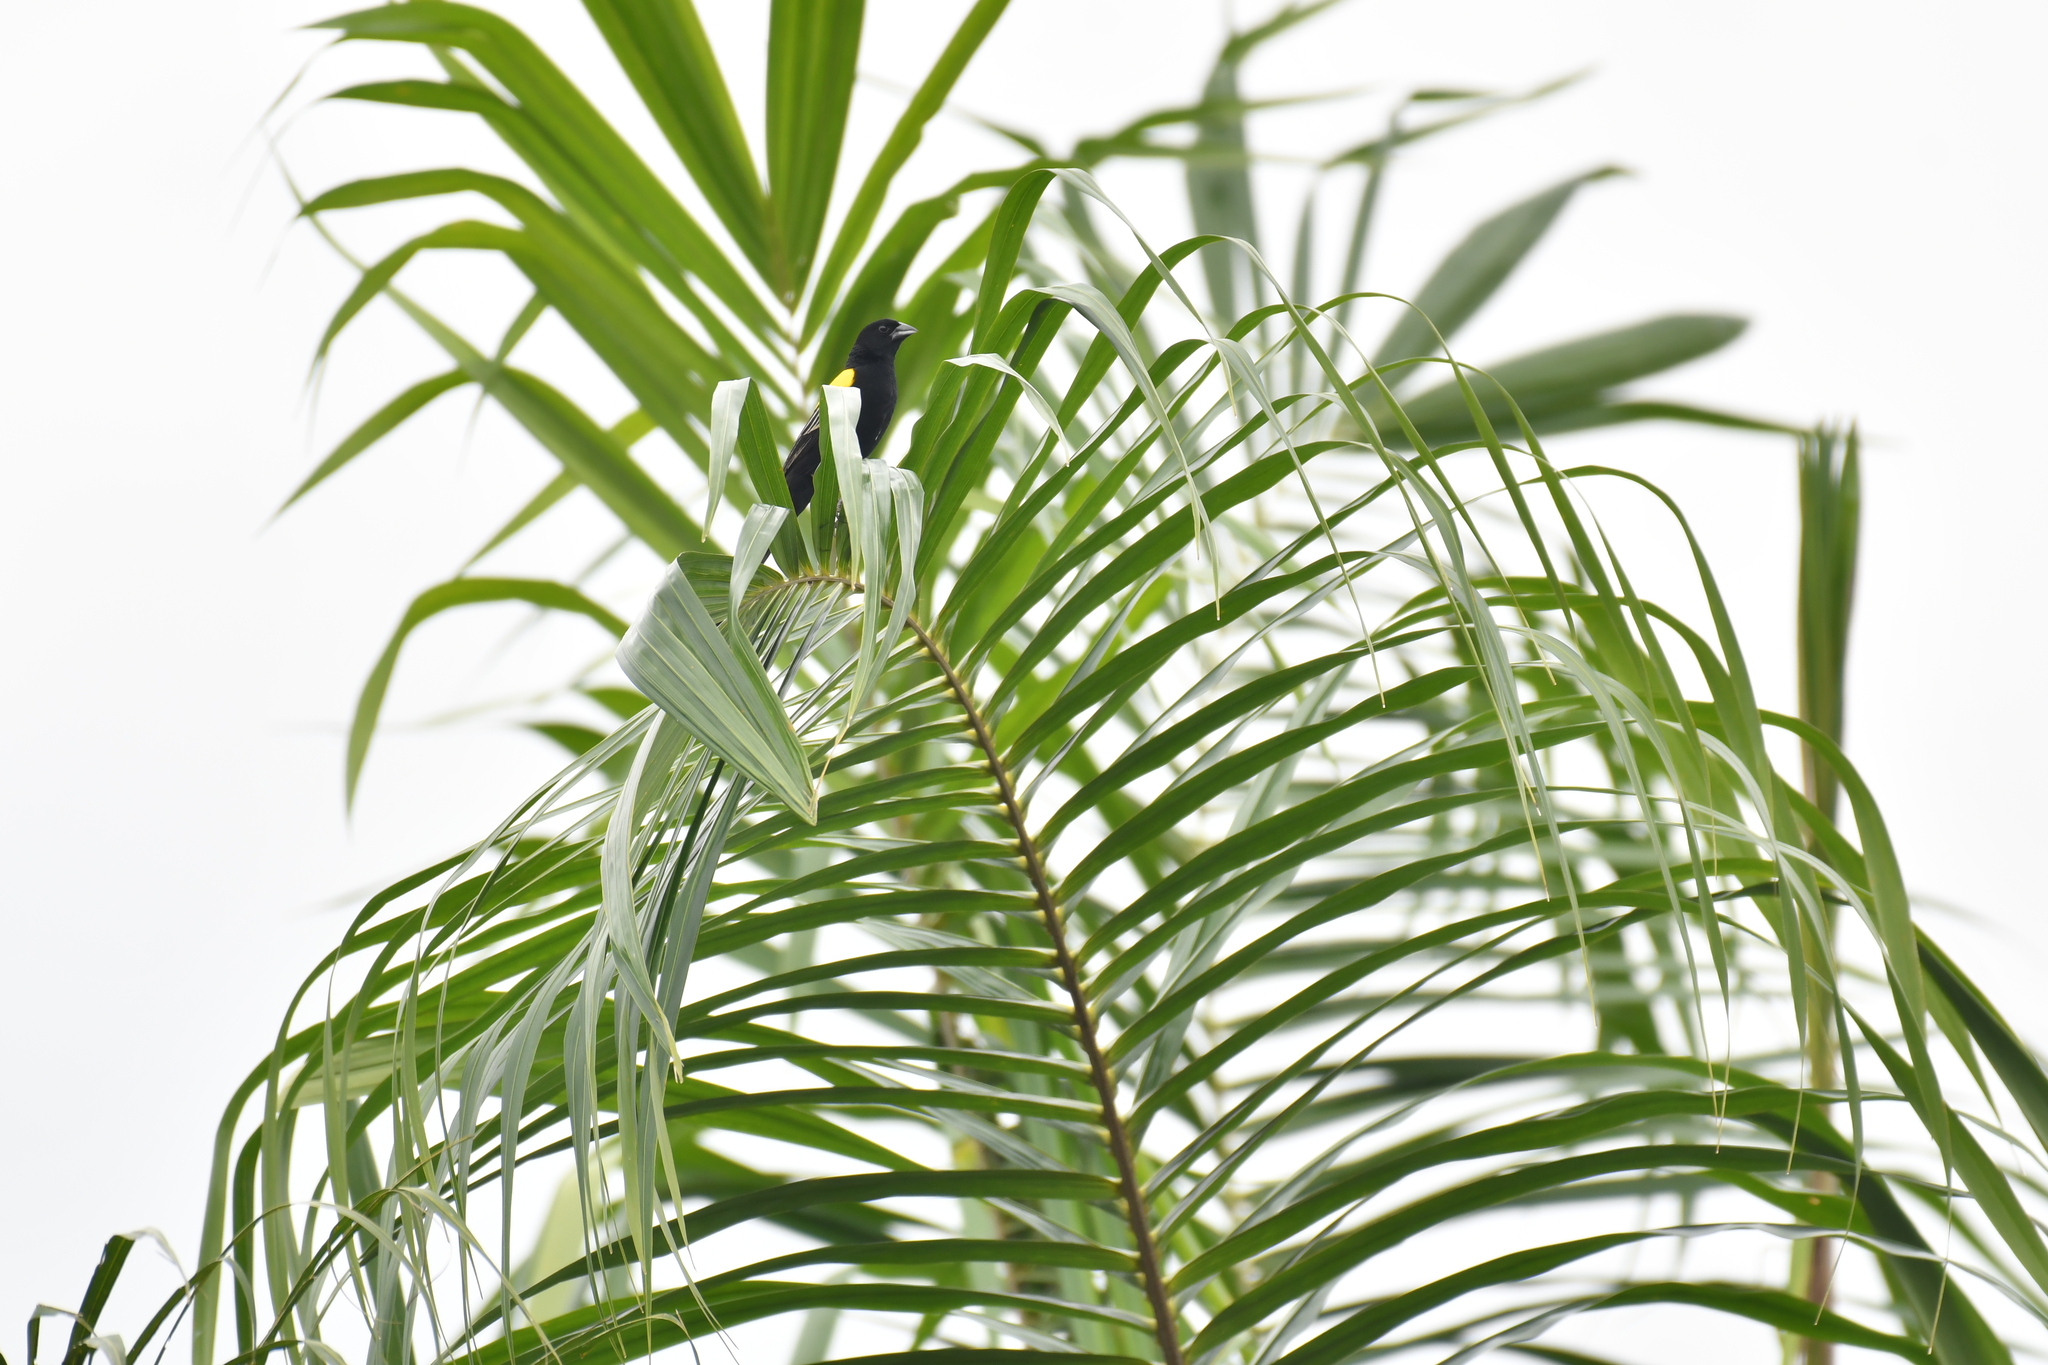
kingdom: Animalia
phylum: Chordata
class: Aves
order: Passeriformes
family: Ploceidae
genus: Euplectes
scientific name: Euplectes macroura
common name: Yellow-mantled widowbird
